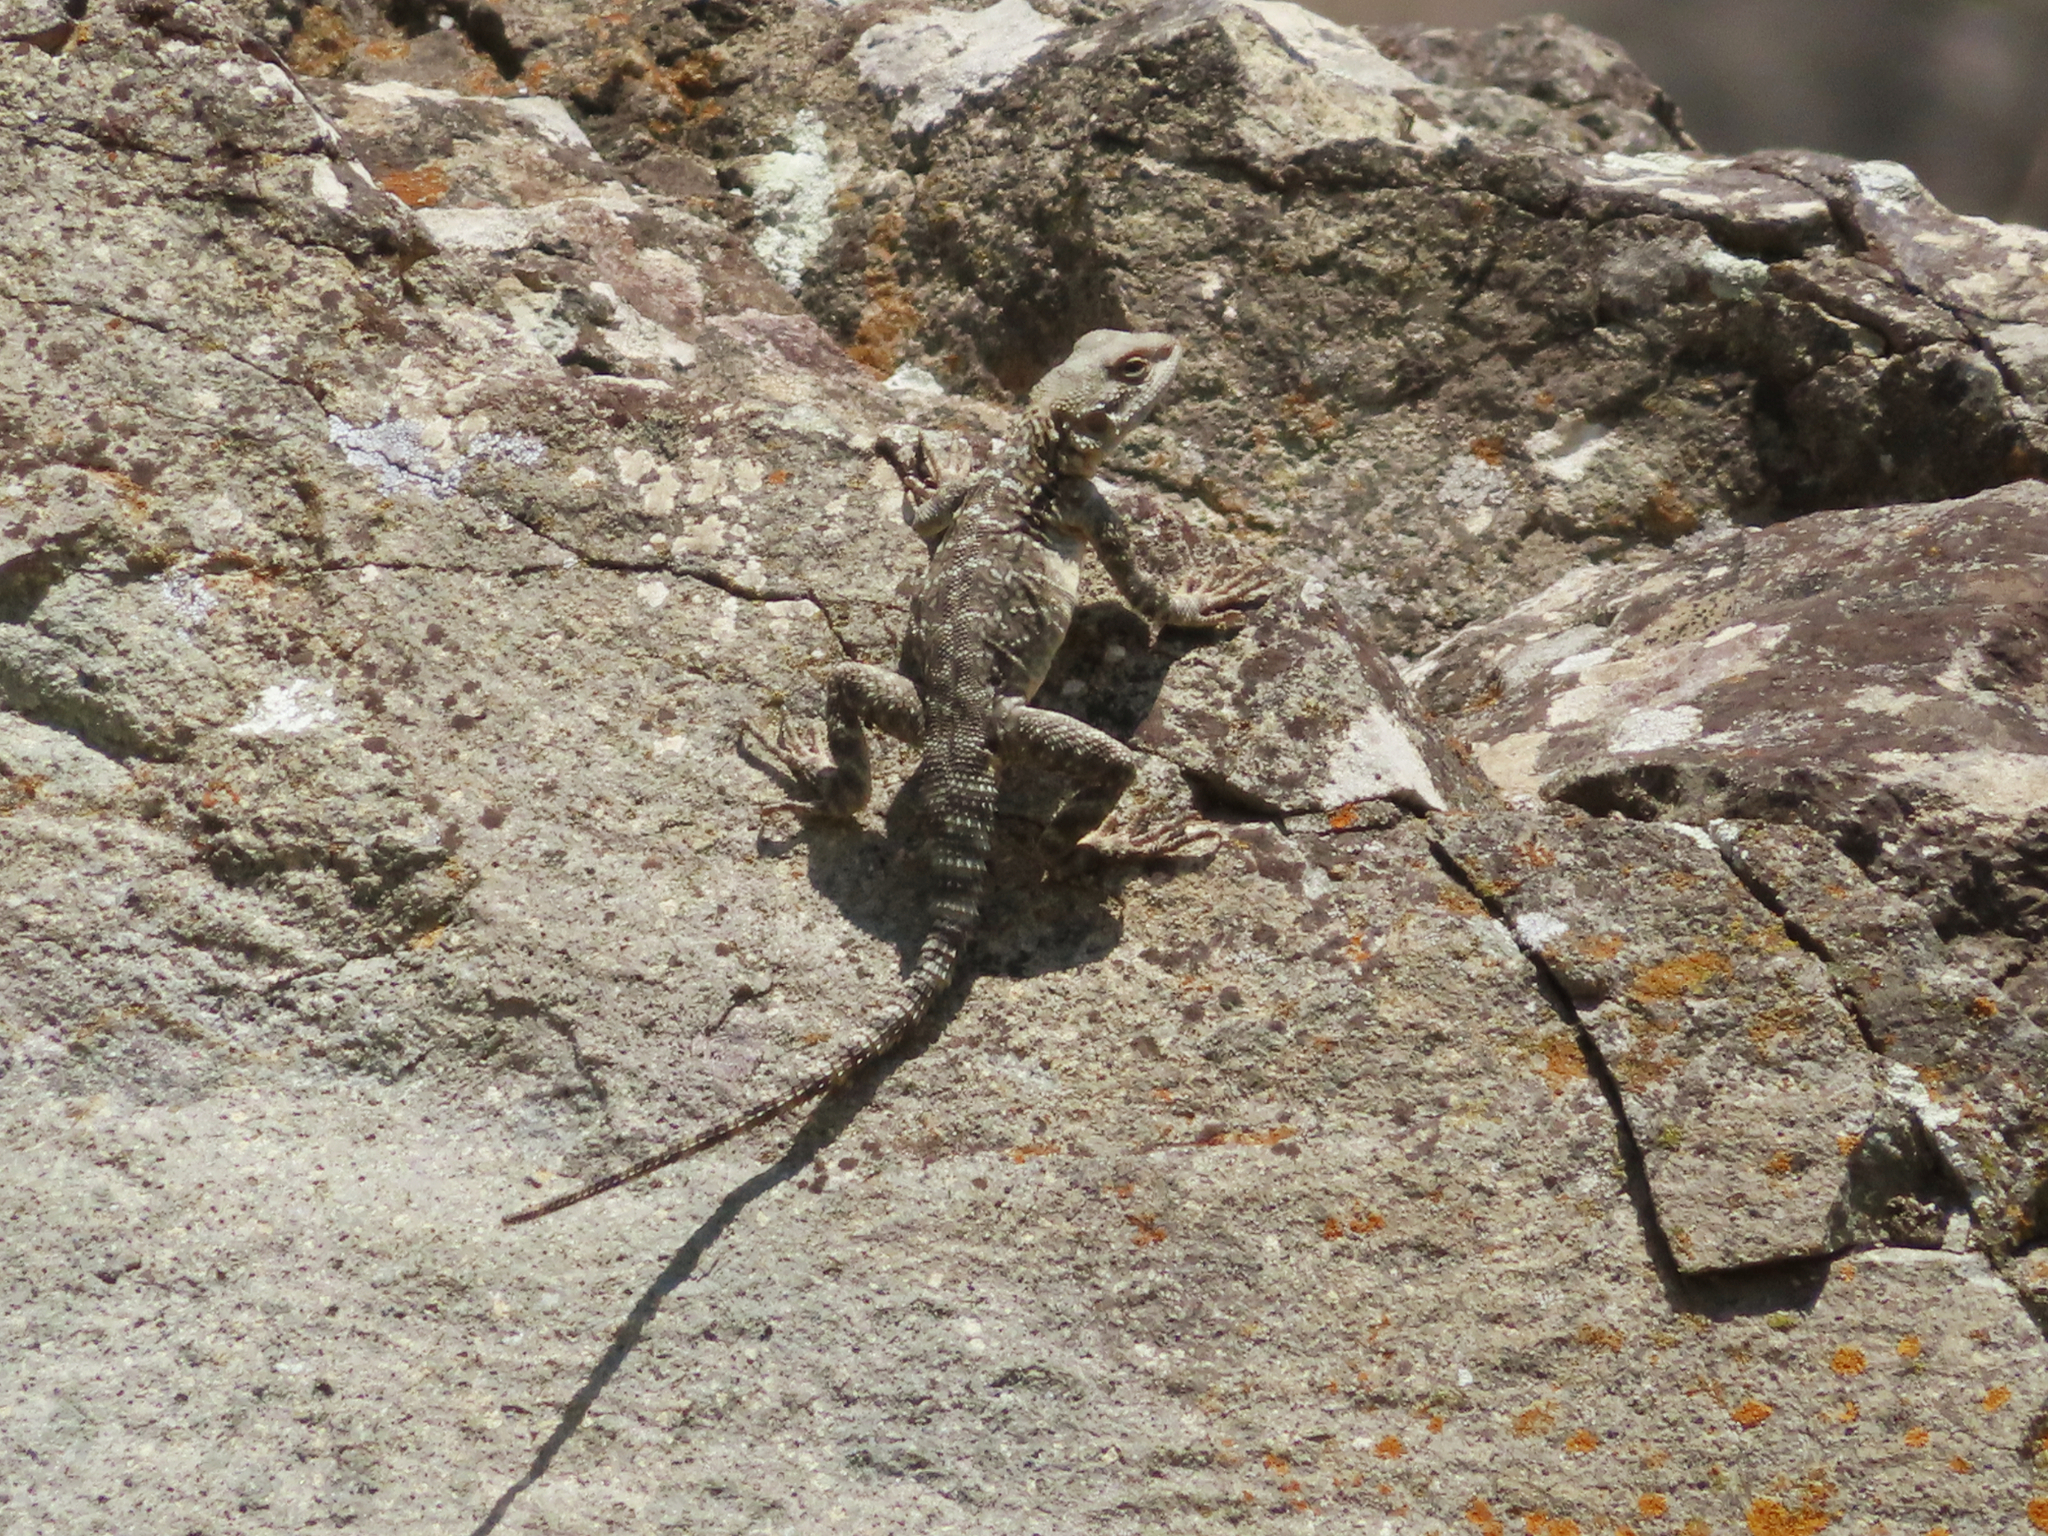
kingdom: Animalia
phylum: Chordata
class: Squamata
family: Agamidae
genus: Paralaudakia
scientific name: Paralaudakia caucasia
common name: Caucasian agama
